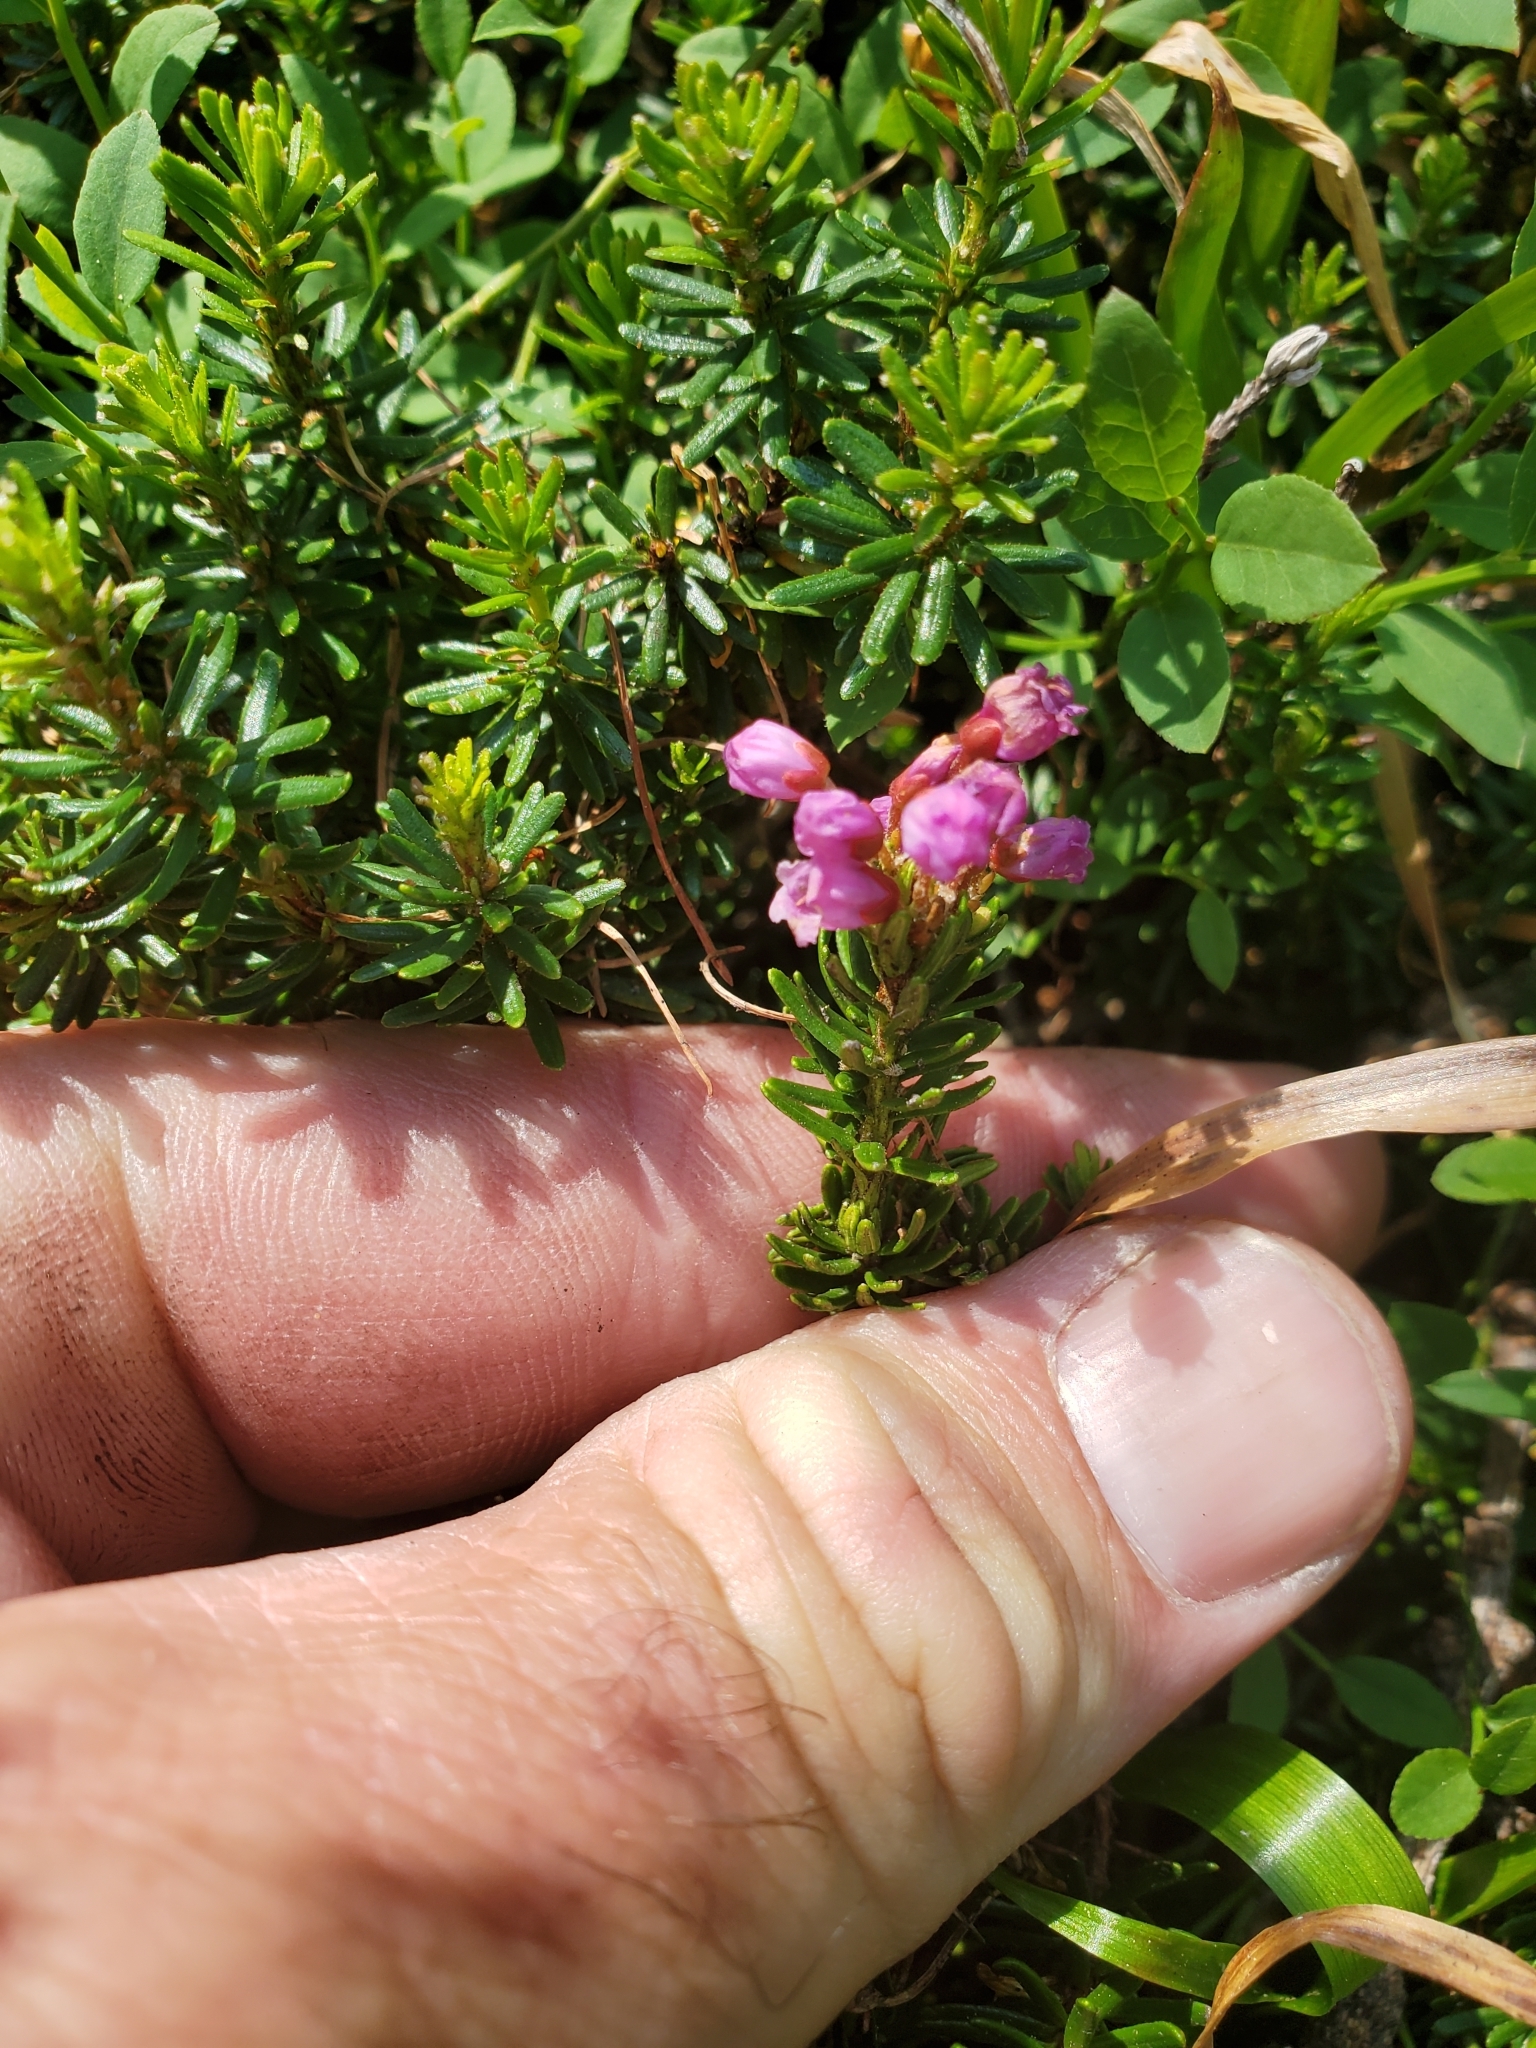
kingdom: Plantae
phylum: Tracheophyta
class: Magnoliopsida
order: Ericales
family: Ericaceae
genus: Phyllodoce
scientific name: Phyllodoce empetriformis
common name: Pink mountain heather
